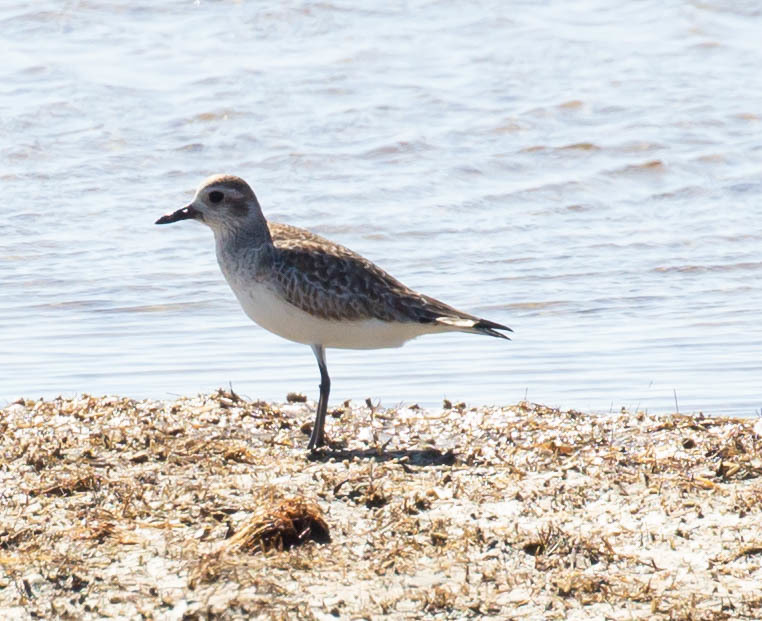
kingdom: Animalia
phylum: Chordata
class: Aves
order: Charadriiformes
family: Charadriidae
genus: Pluvialis
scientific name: Pluvialis squatarola
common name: Grey plover
